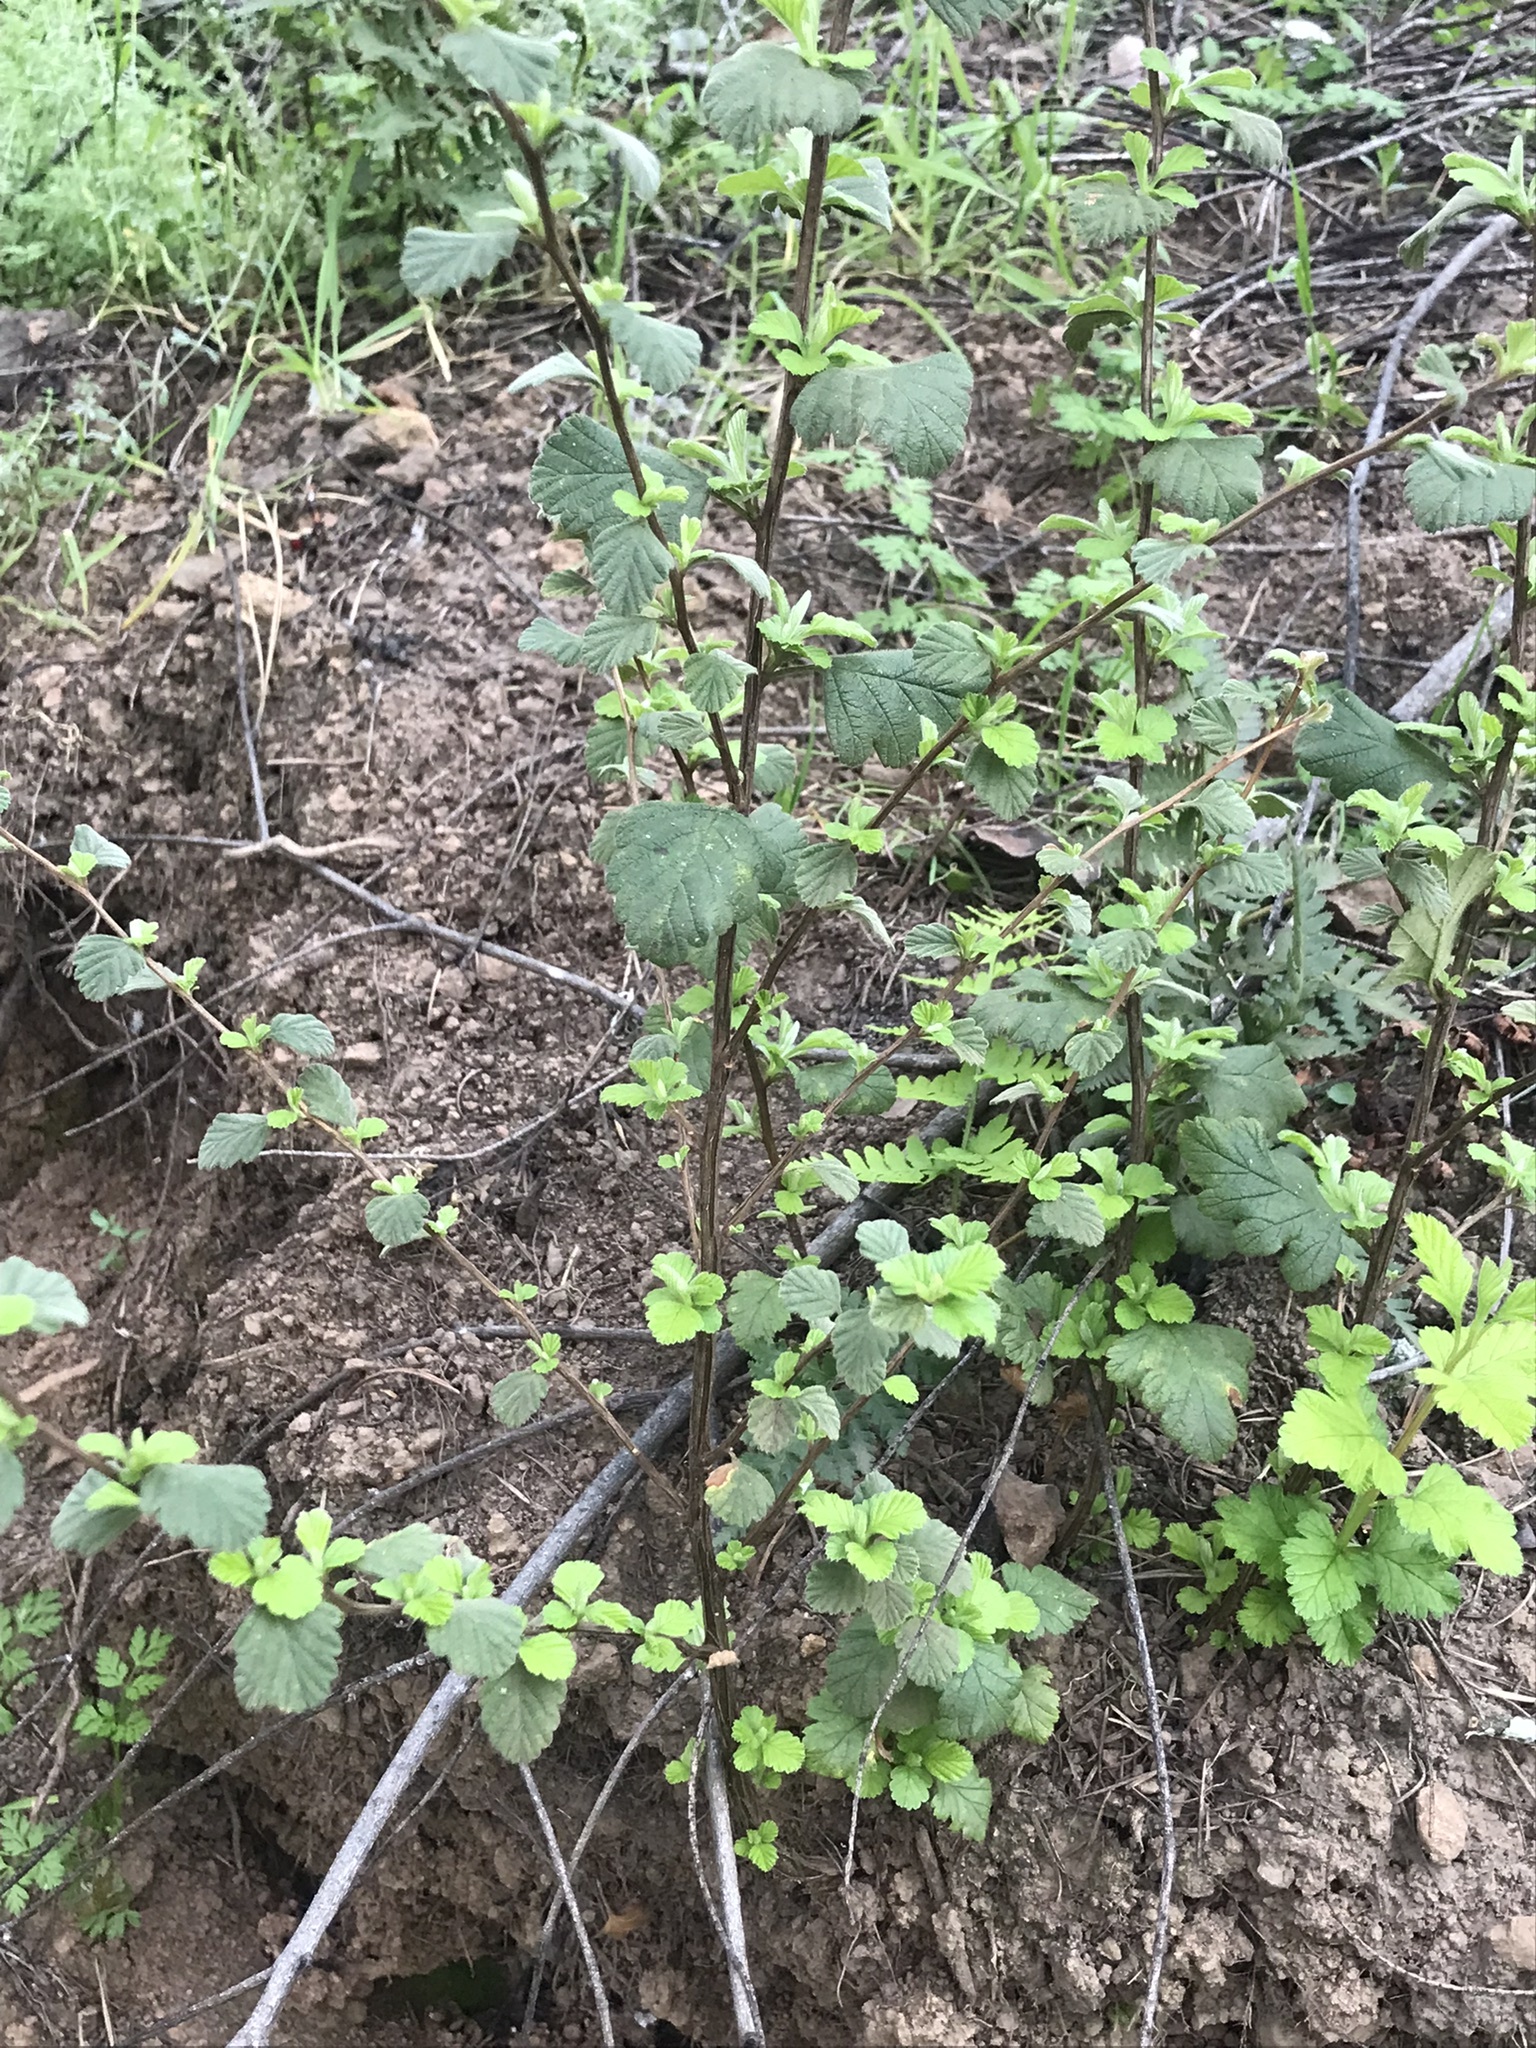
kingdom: Plantae
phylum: Tracheophyta
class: Magnoliopsida
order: Rosales
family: Rosaceae
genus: Holodiscus
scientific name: Holodiscus discolor
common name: Oceanspray
